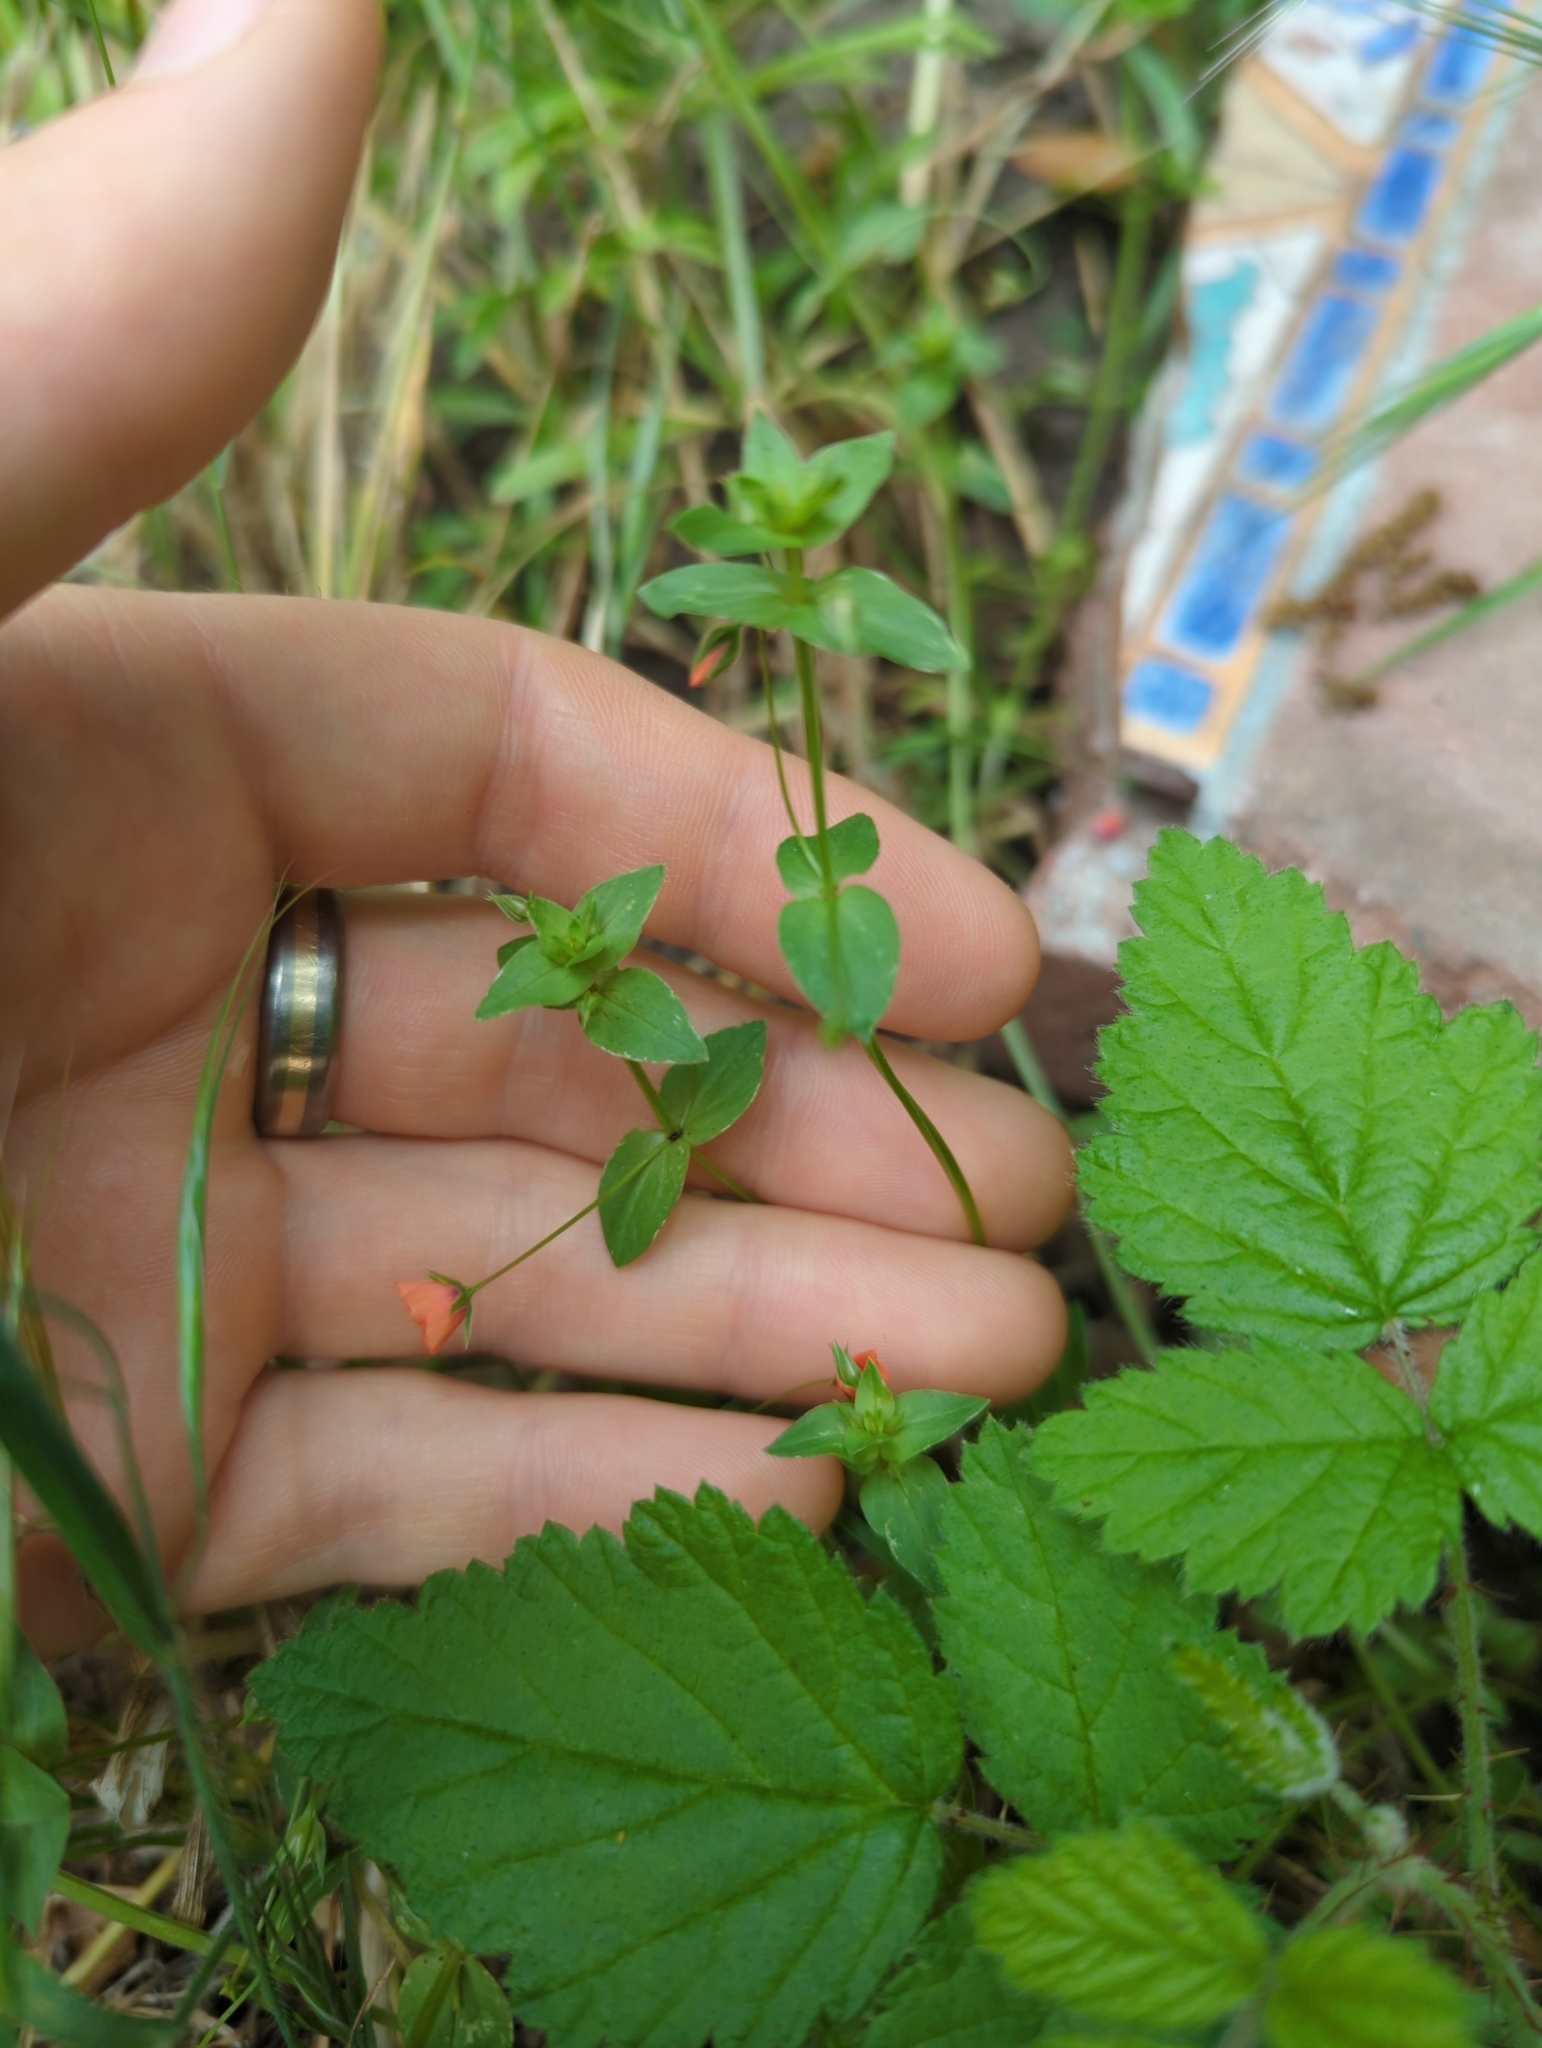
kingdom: Plantae
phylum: Tracheophyta
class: Magnoliopsida
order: Ericales
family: Primulaceae
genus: Lysimachia
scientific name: Lysimachia arvensis
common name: Scarlet pimpernel
